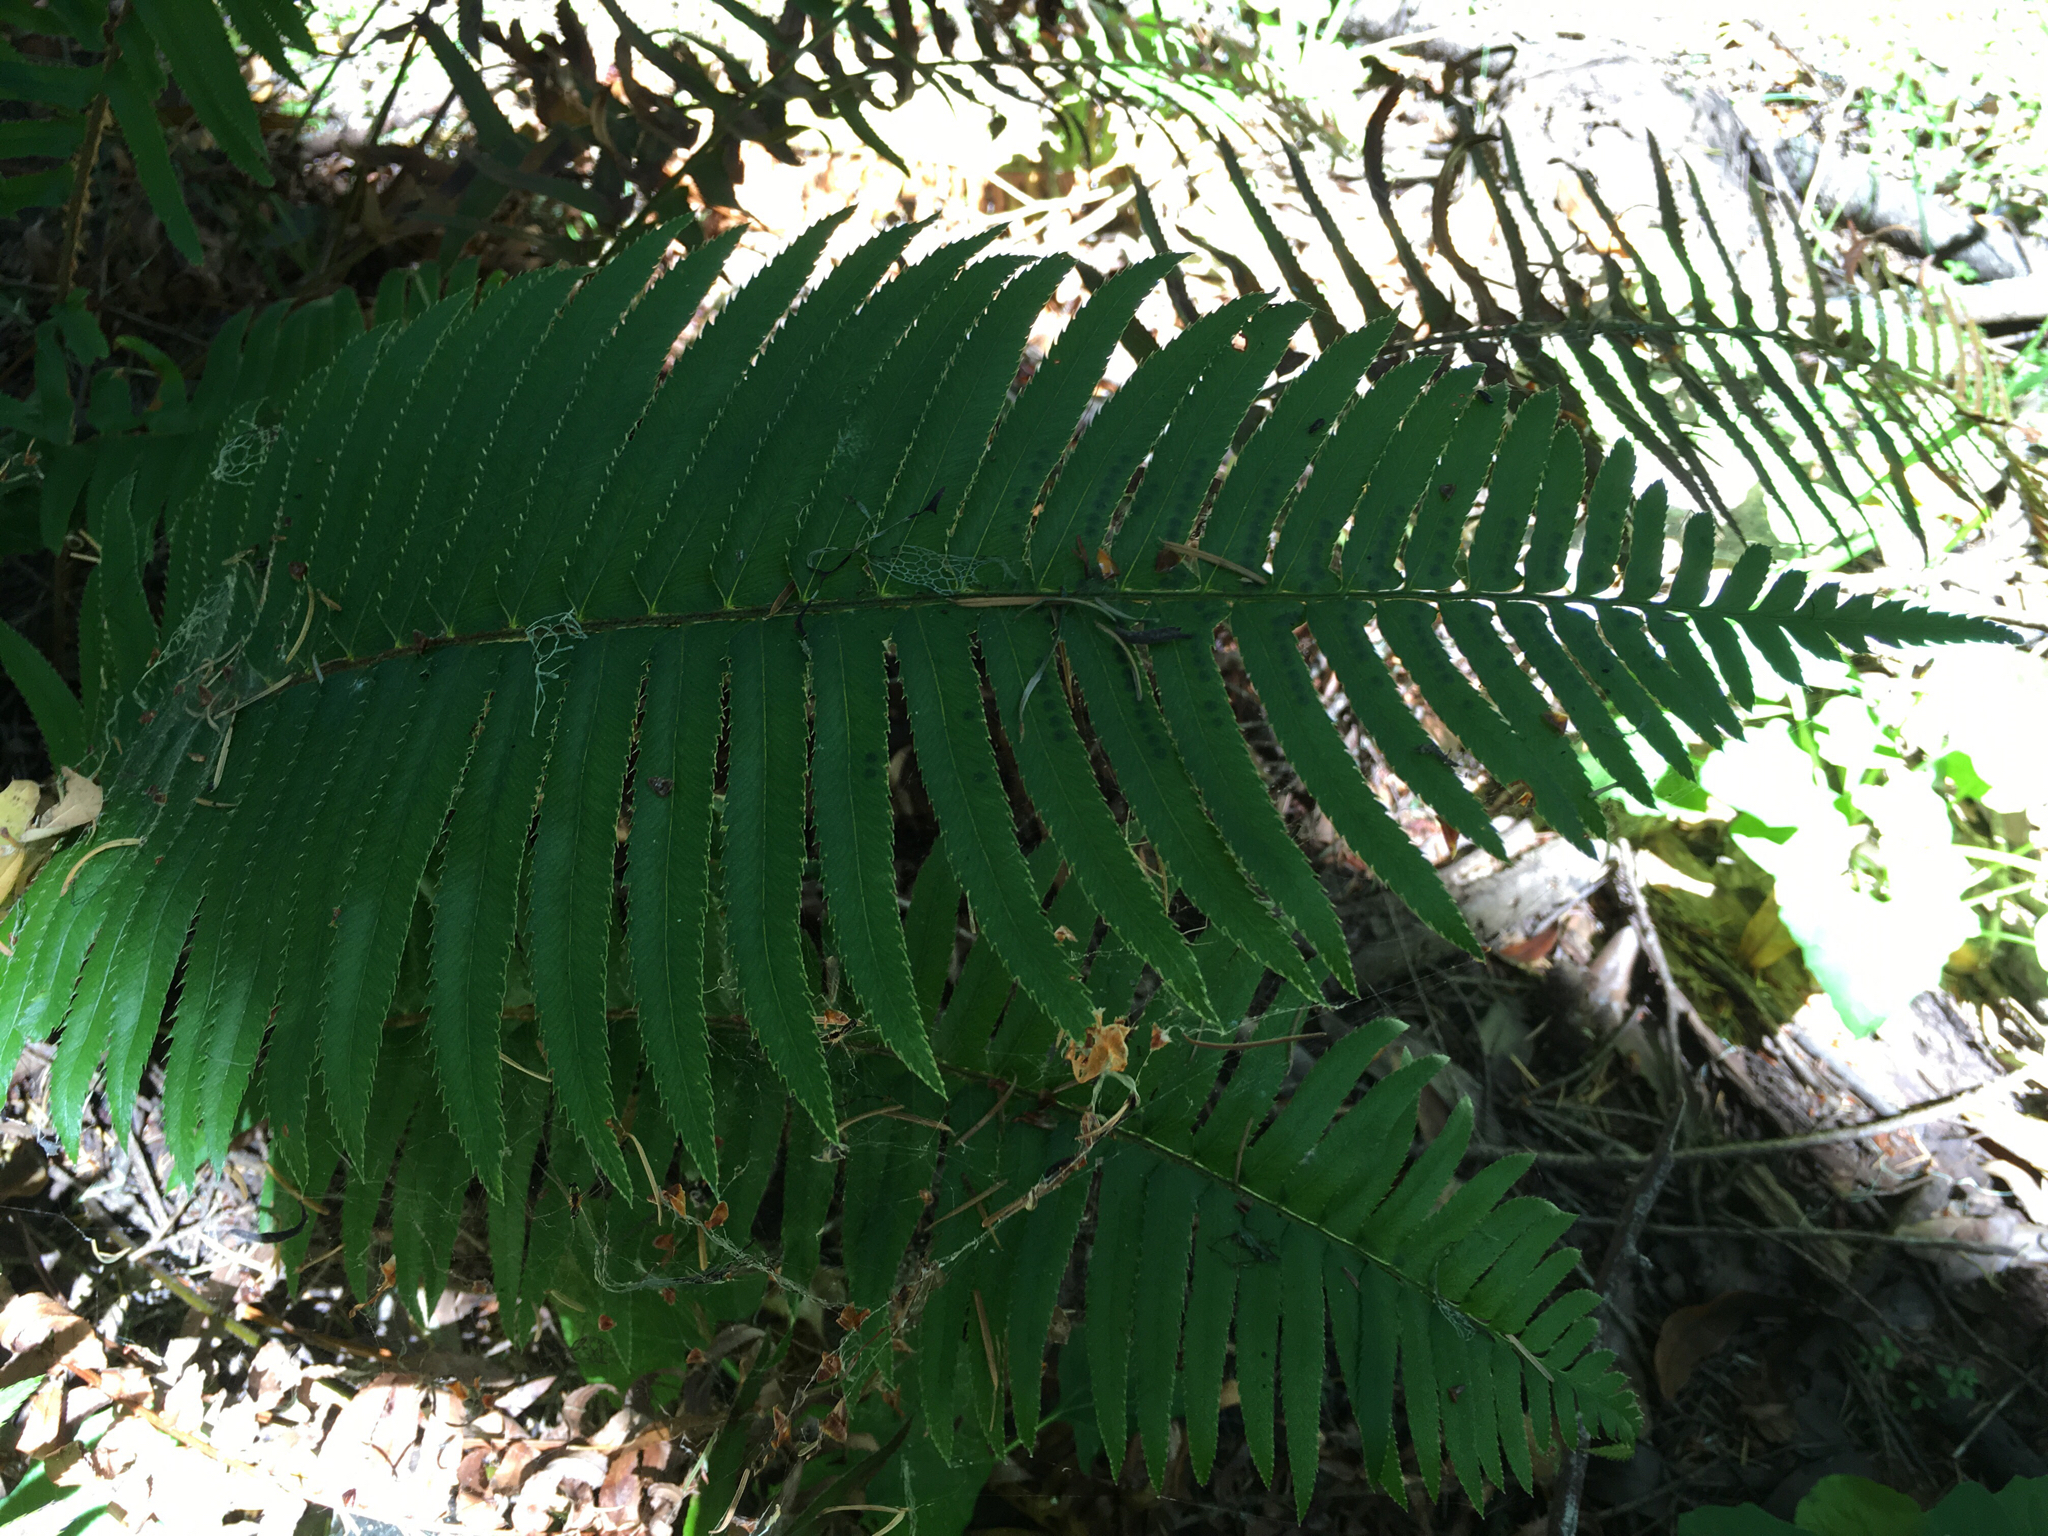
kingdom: Plantae
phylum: Tracheophyta
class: Polypodiopsida
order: Polypodiales
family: Dryopteridaceae
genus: Polystichum
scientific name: Polystichum munitum
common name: Western sword-fern
